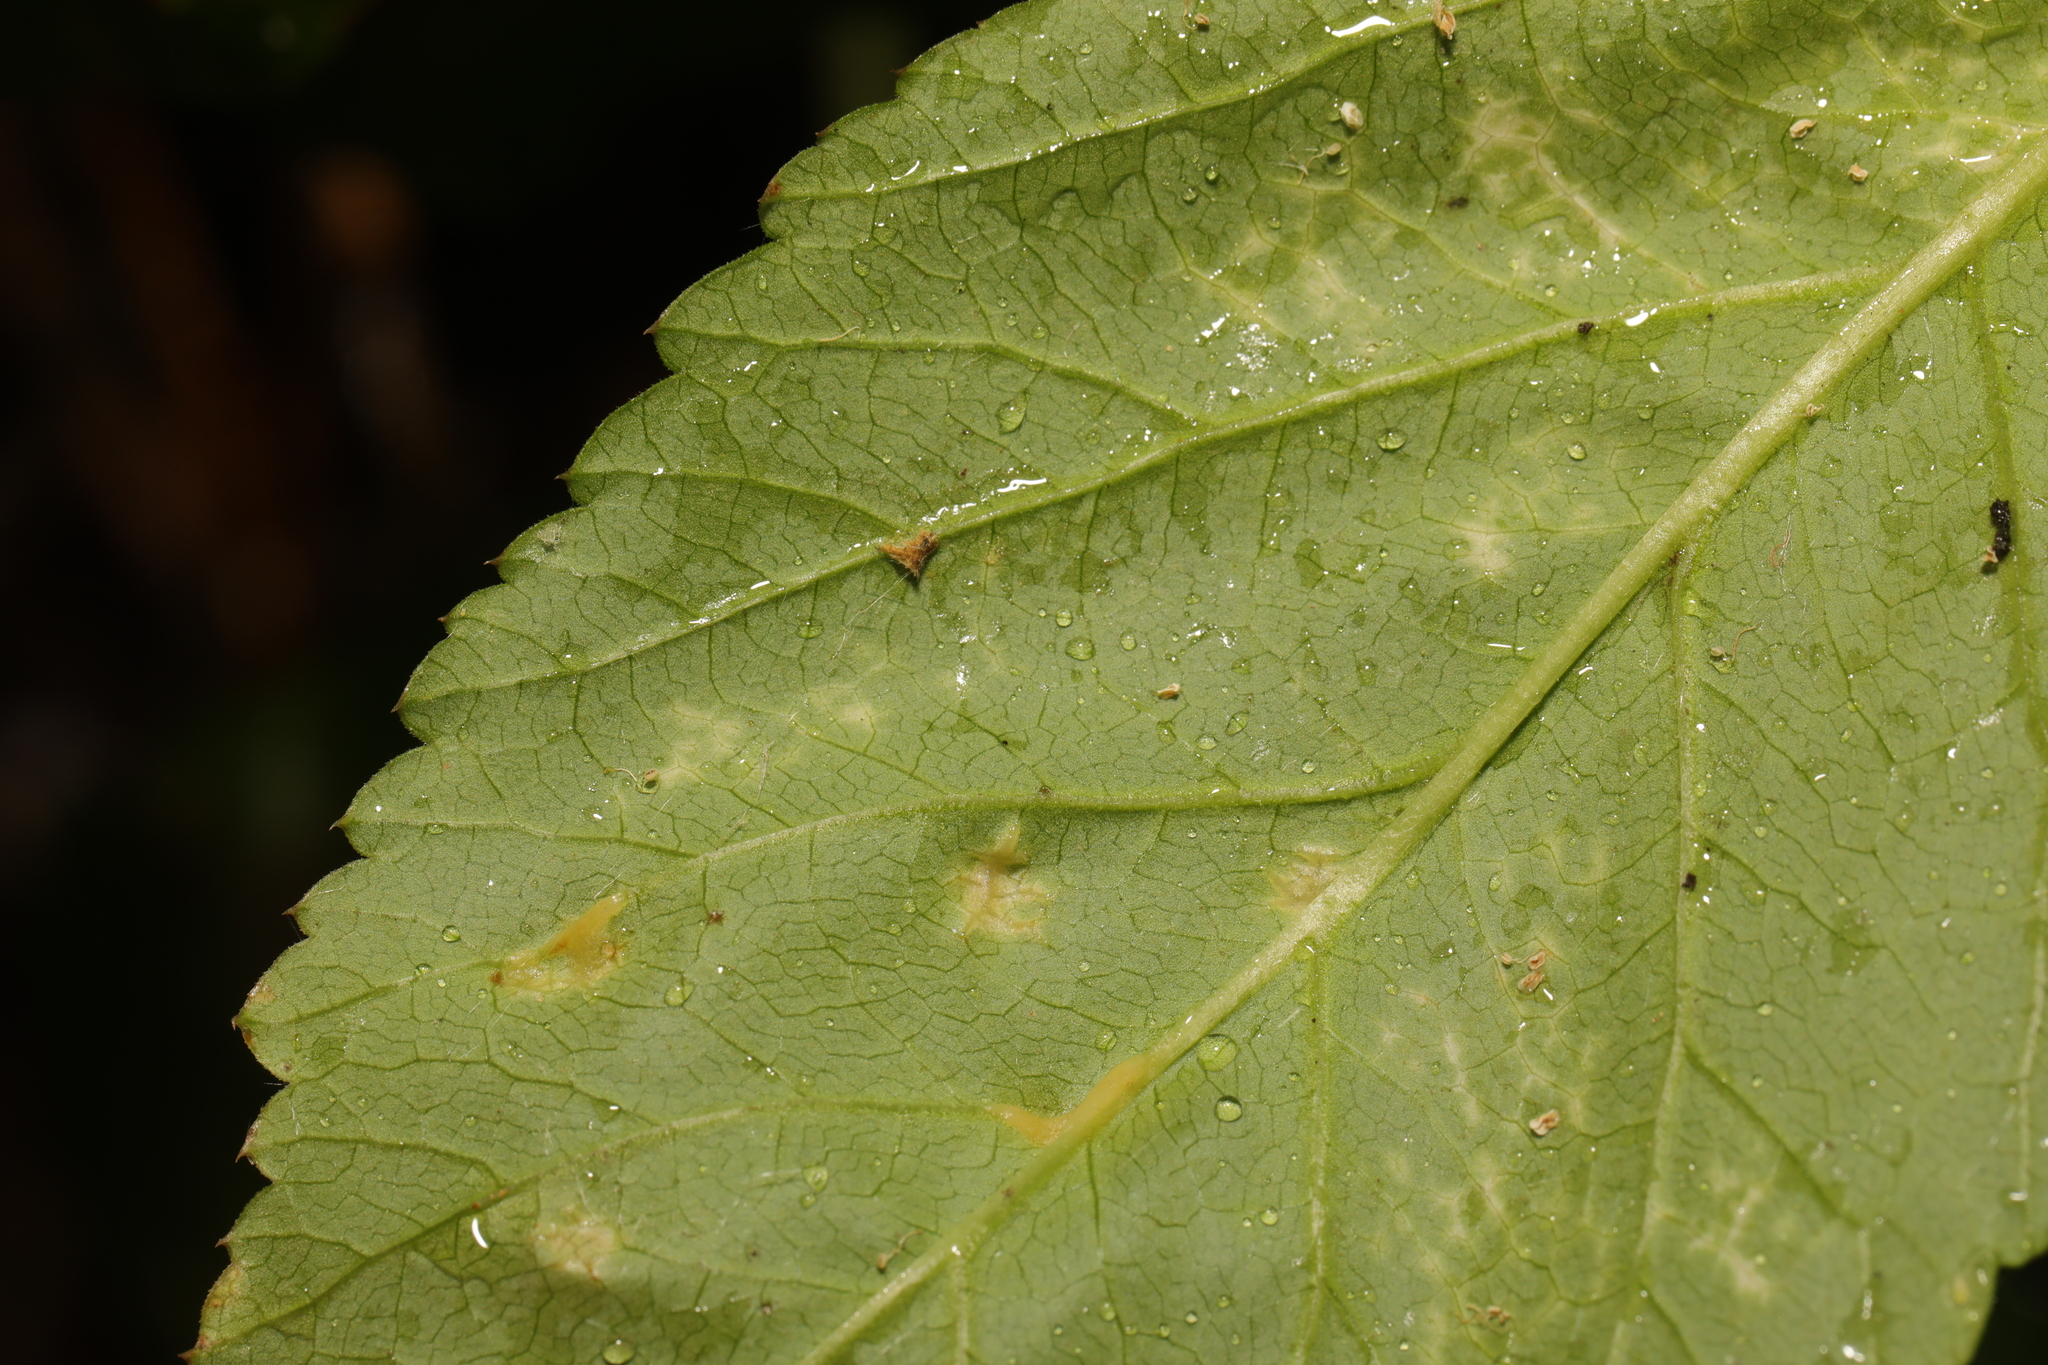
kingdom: Fungi
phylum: Ascomycota
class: Taphrinomycetes
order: Taphrinales
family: Taphrinaceae
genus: Protomyces
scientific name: Protomyces macrosporus
